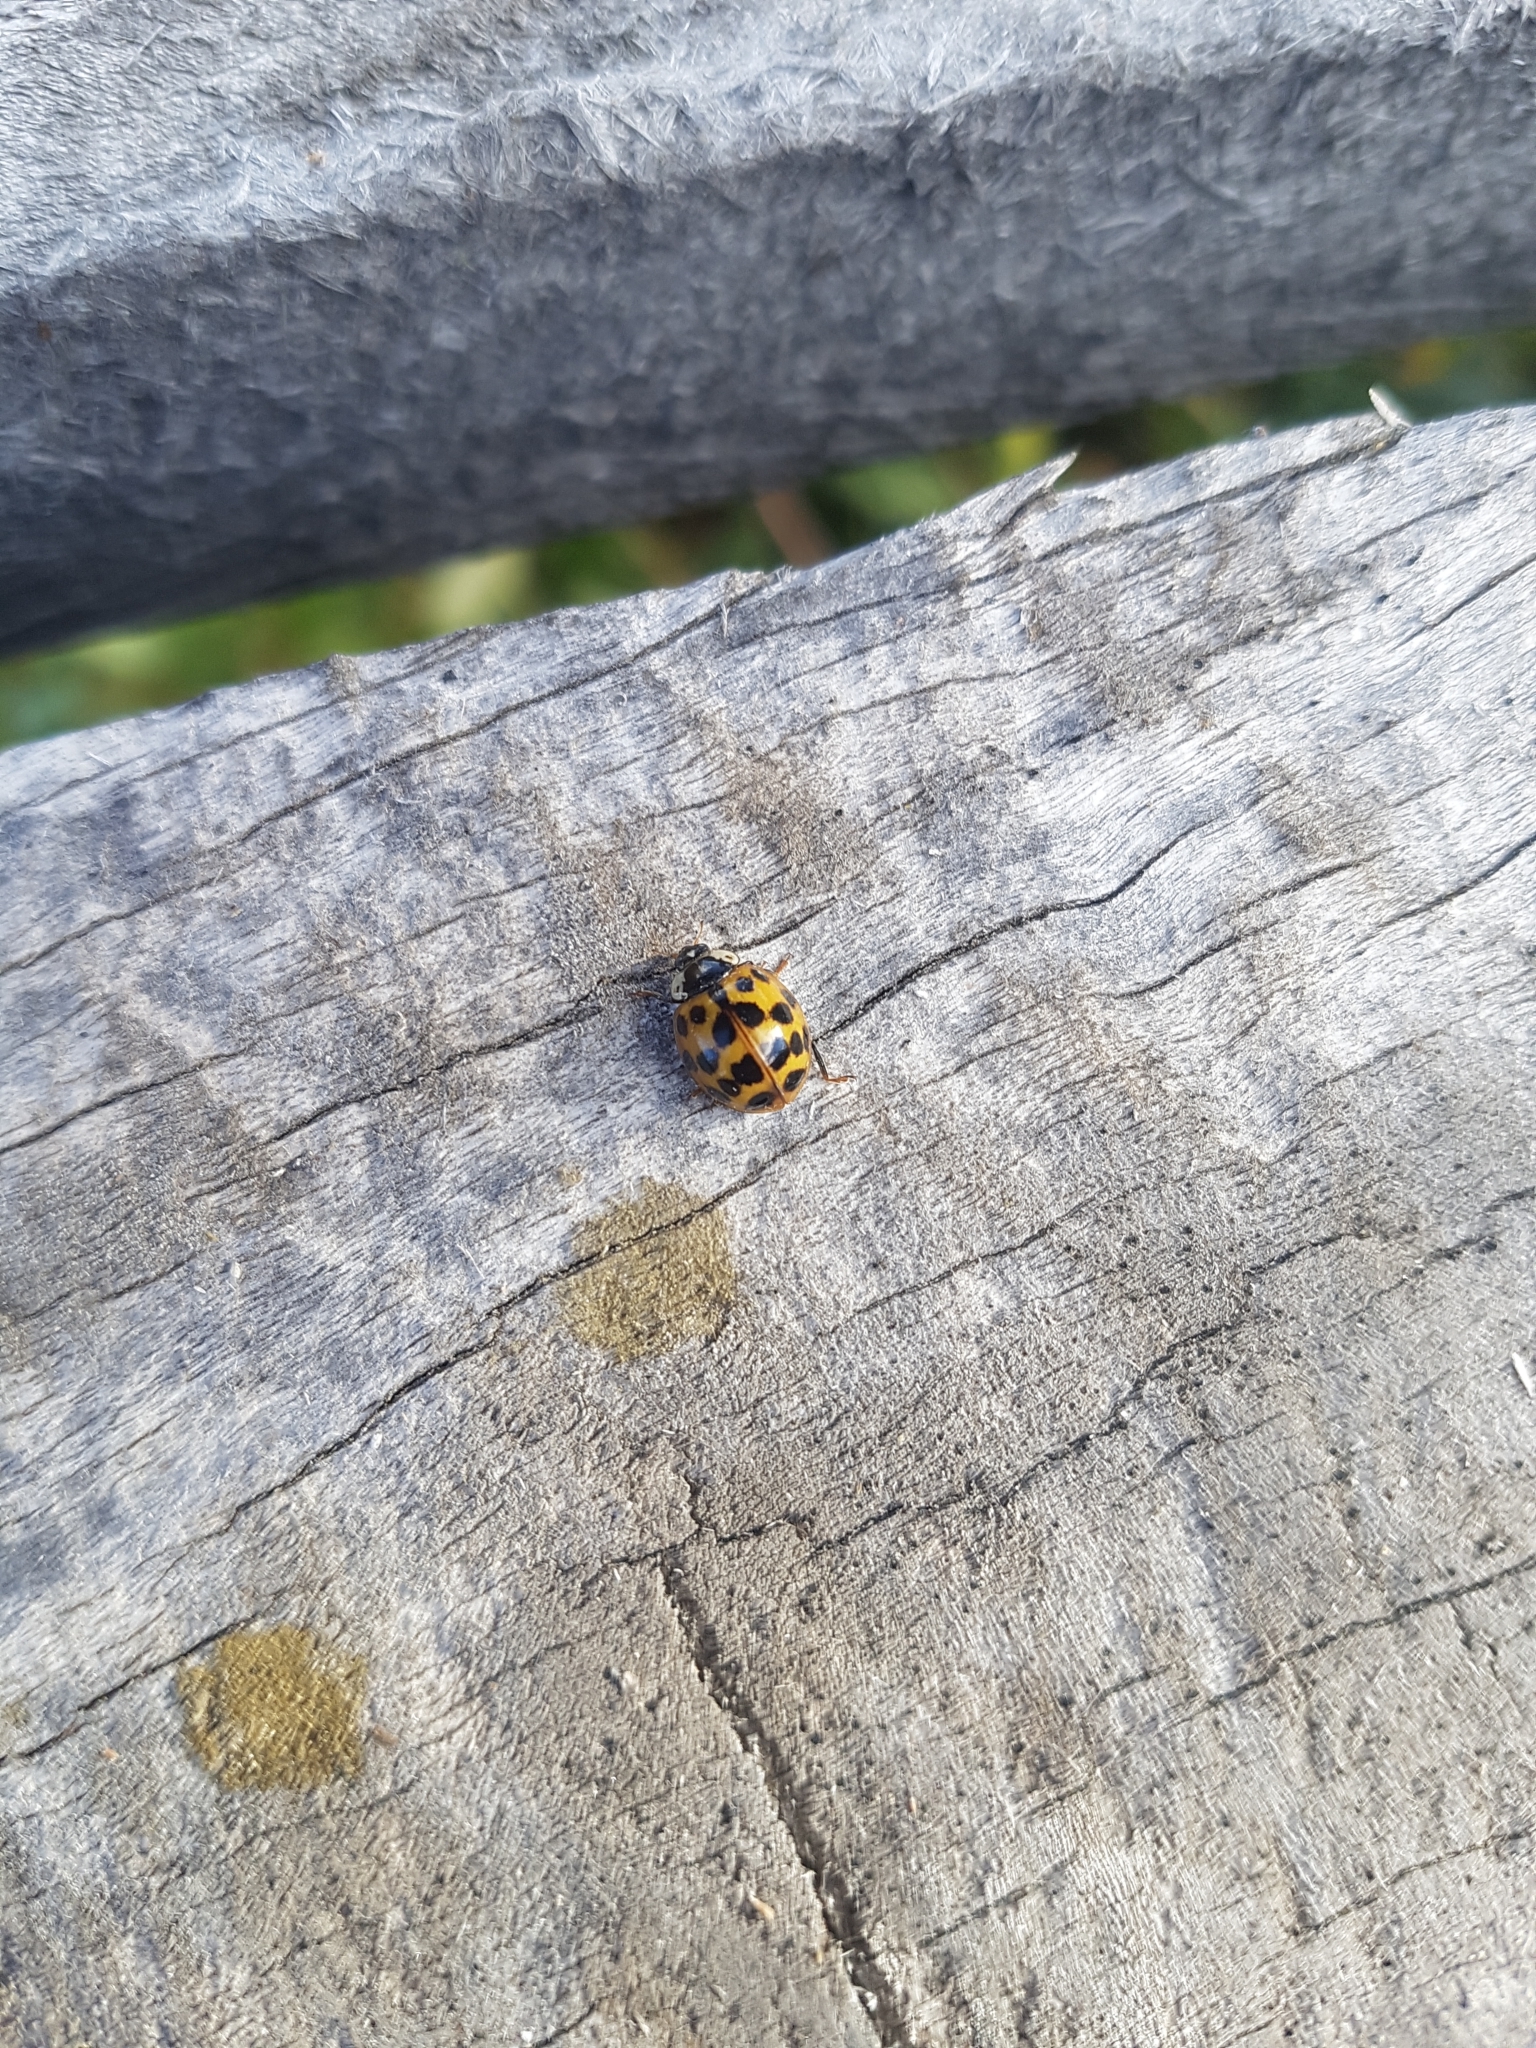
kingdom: Animalia
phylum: Arthropoda
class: Insecta
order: Coleoptera
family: Coccinellidae
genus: Harmonia
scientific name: Harmonia axyridis
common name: Harlequin ladybird
